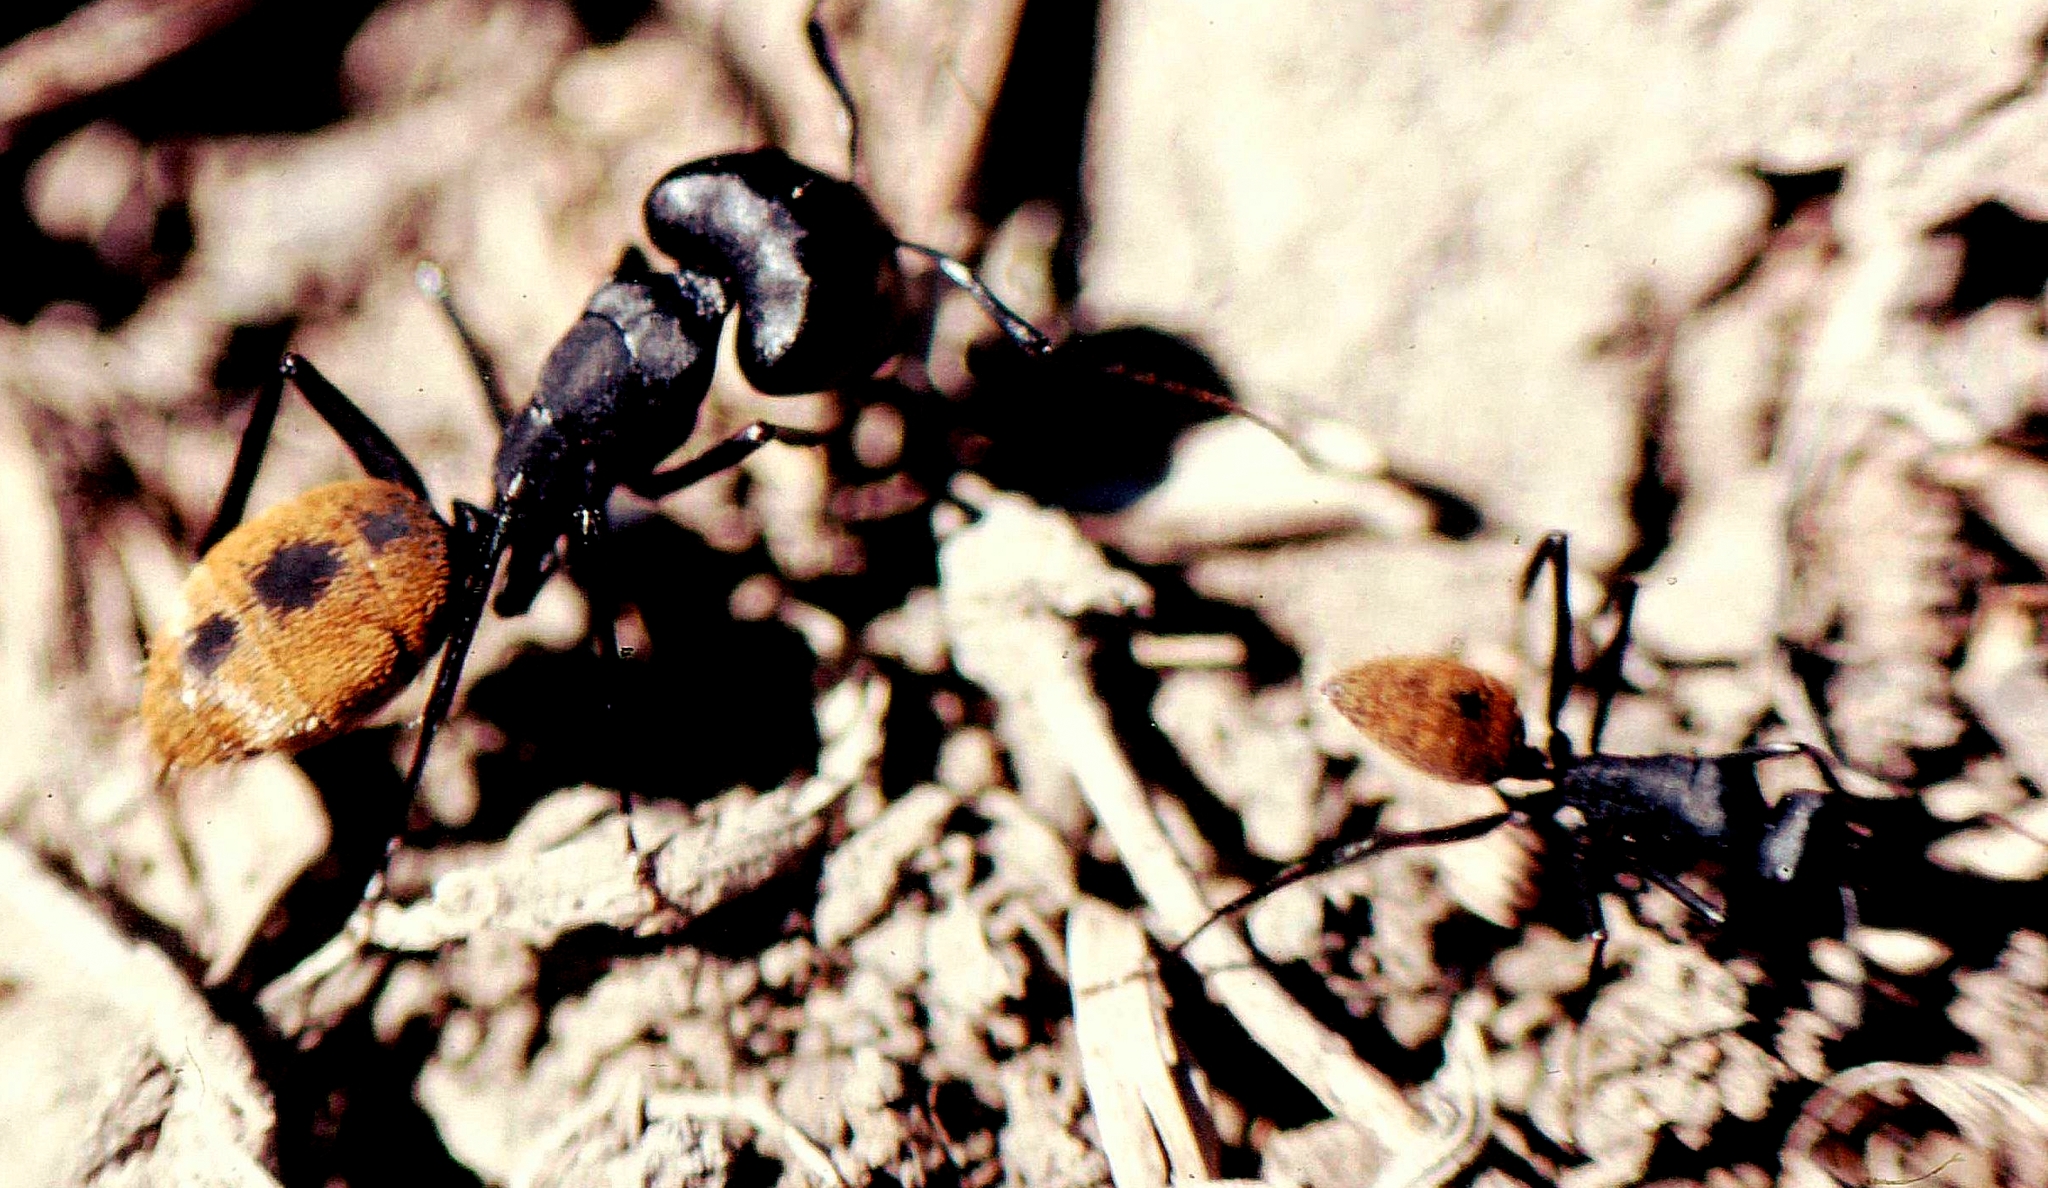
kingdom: Animalia
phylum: Arthropoda
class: Insecta
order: Hymenoptera
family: Formicidae
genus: Camponotus
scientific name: Camponotus fulvopilosus
